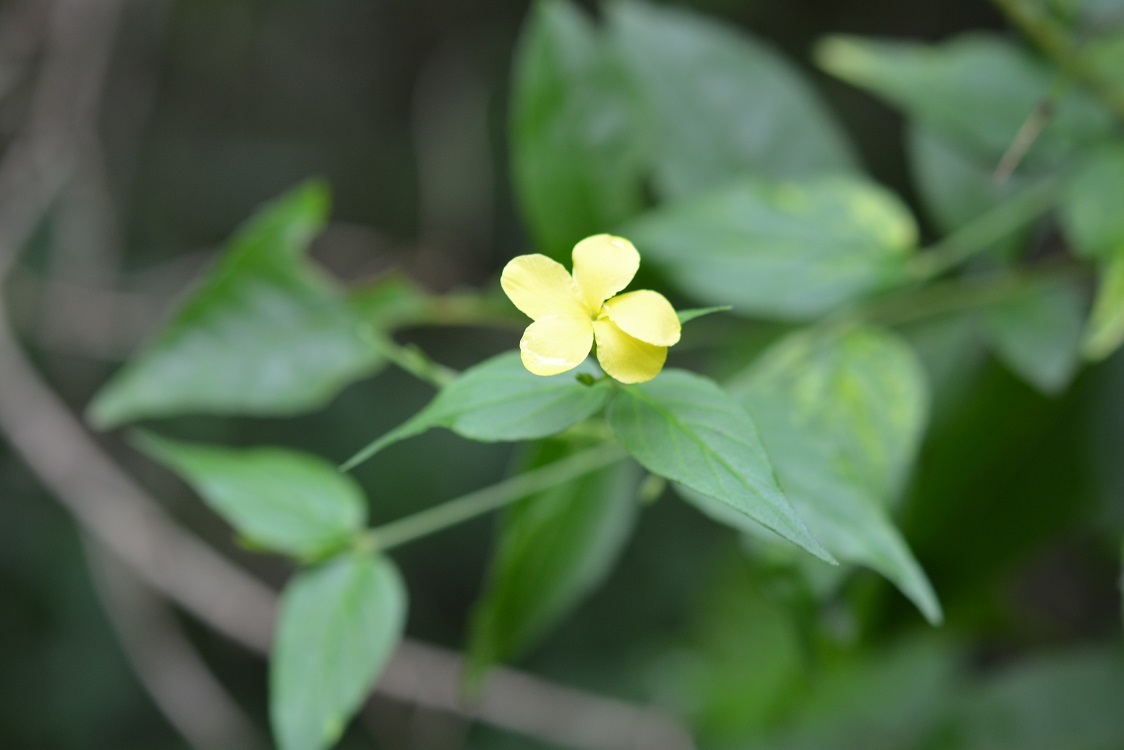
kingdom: Plantae
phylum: Tracheophyta
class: Magnoliopsida
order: Gentianales
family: Apocynaceae
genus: Haplophyton
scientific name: Haplophyton cimicidum
